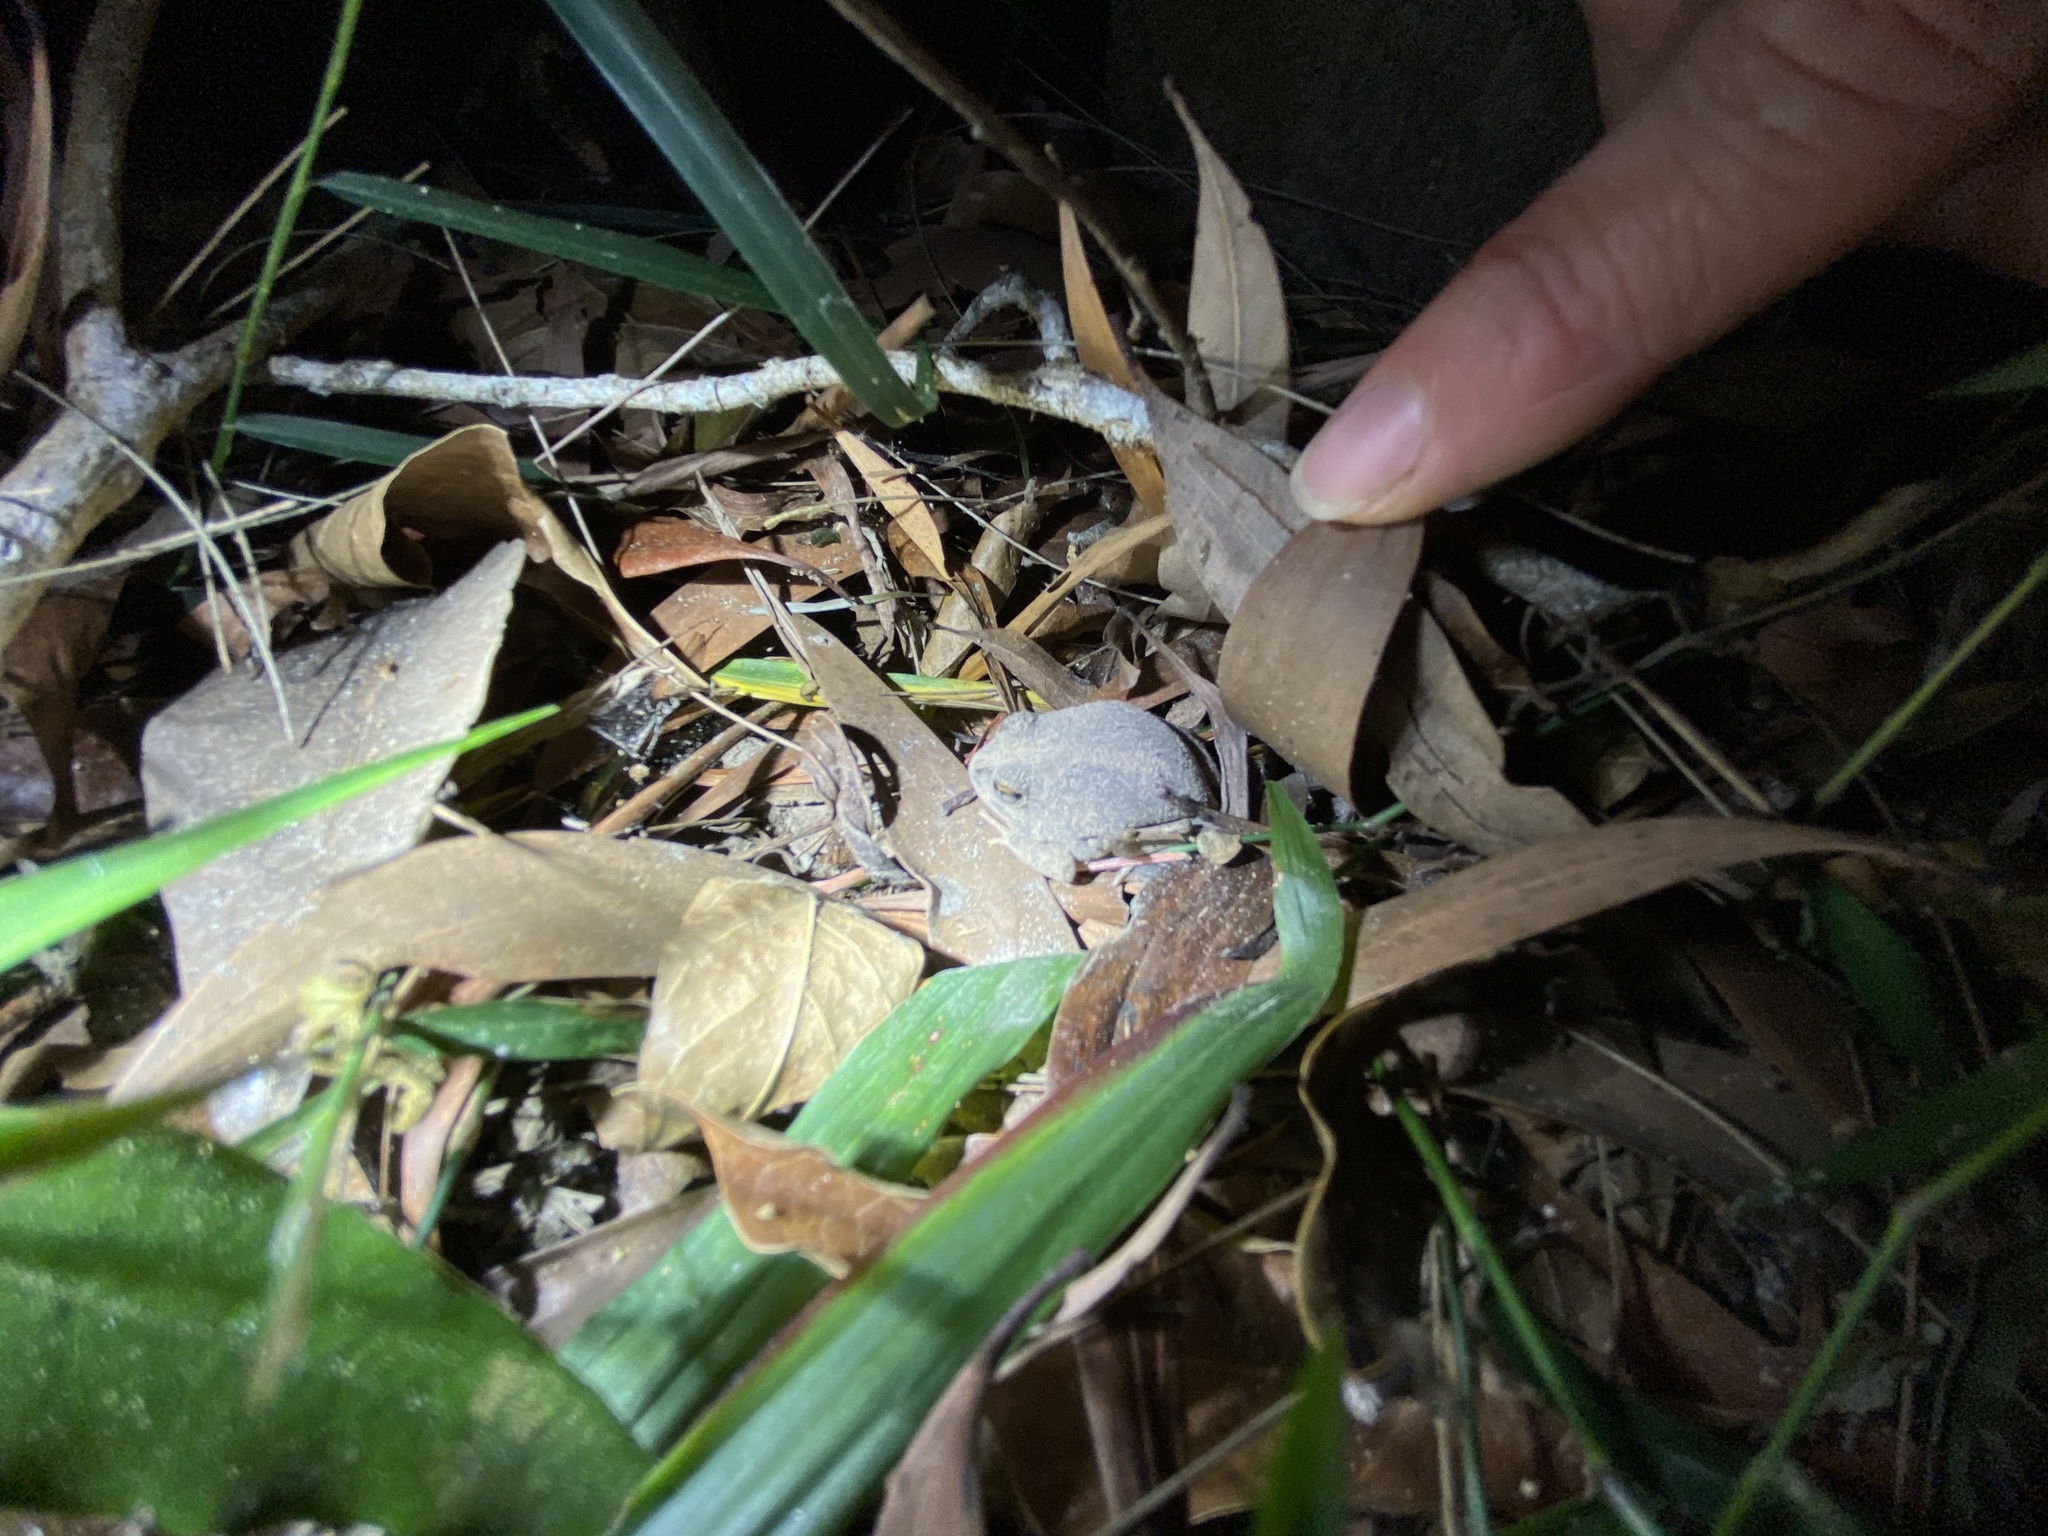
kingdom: Animalia
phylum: Chordata
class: Amphibia
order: Anura
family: Limnodynastidae
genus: Platyplectrum
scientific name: Platyplectrum ornatum
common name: Ornate burrowing frog
